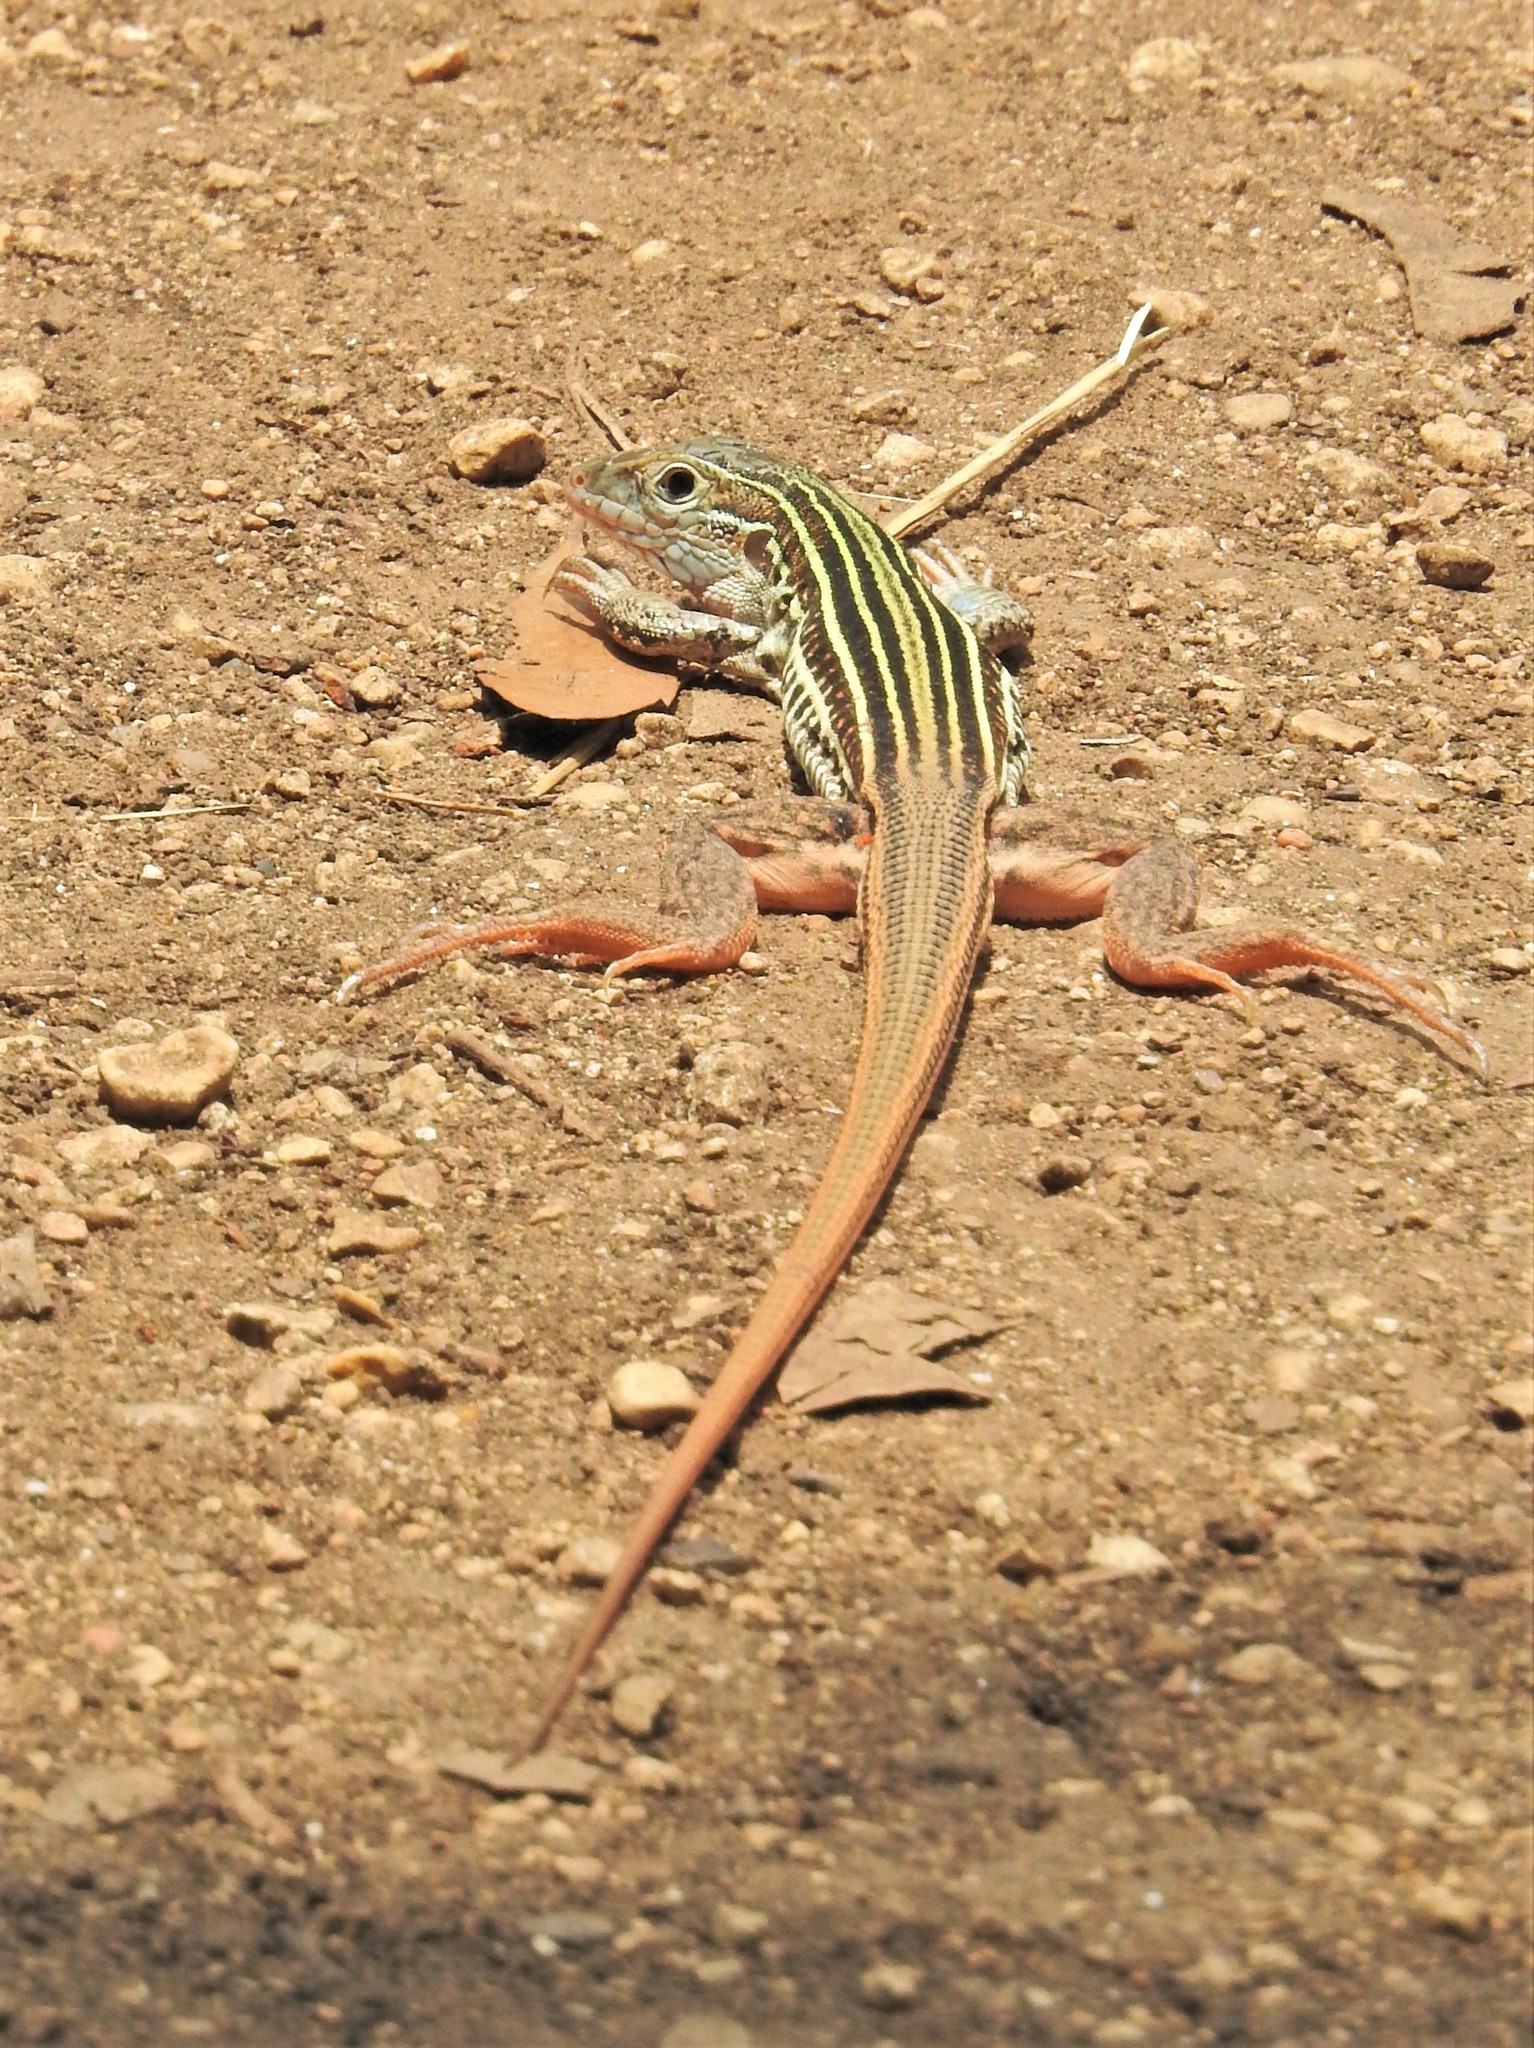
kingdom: Animalia
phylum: Chordata
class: Squamata
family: Teiidae
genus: Aspidoscelis
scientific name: Aspidoscelis gularis
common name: Eastern spotted whiptail
